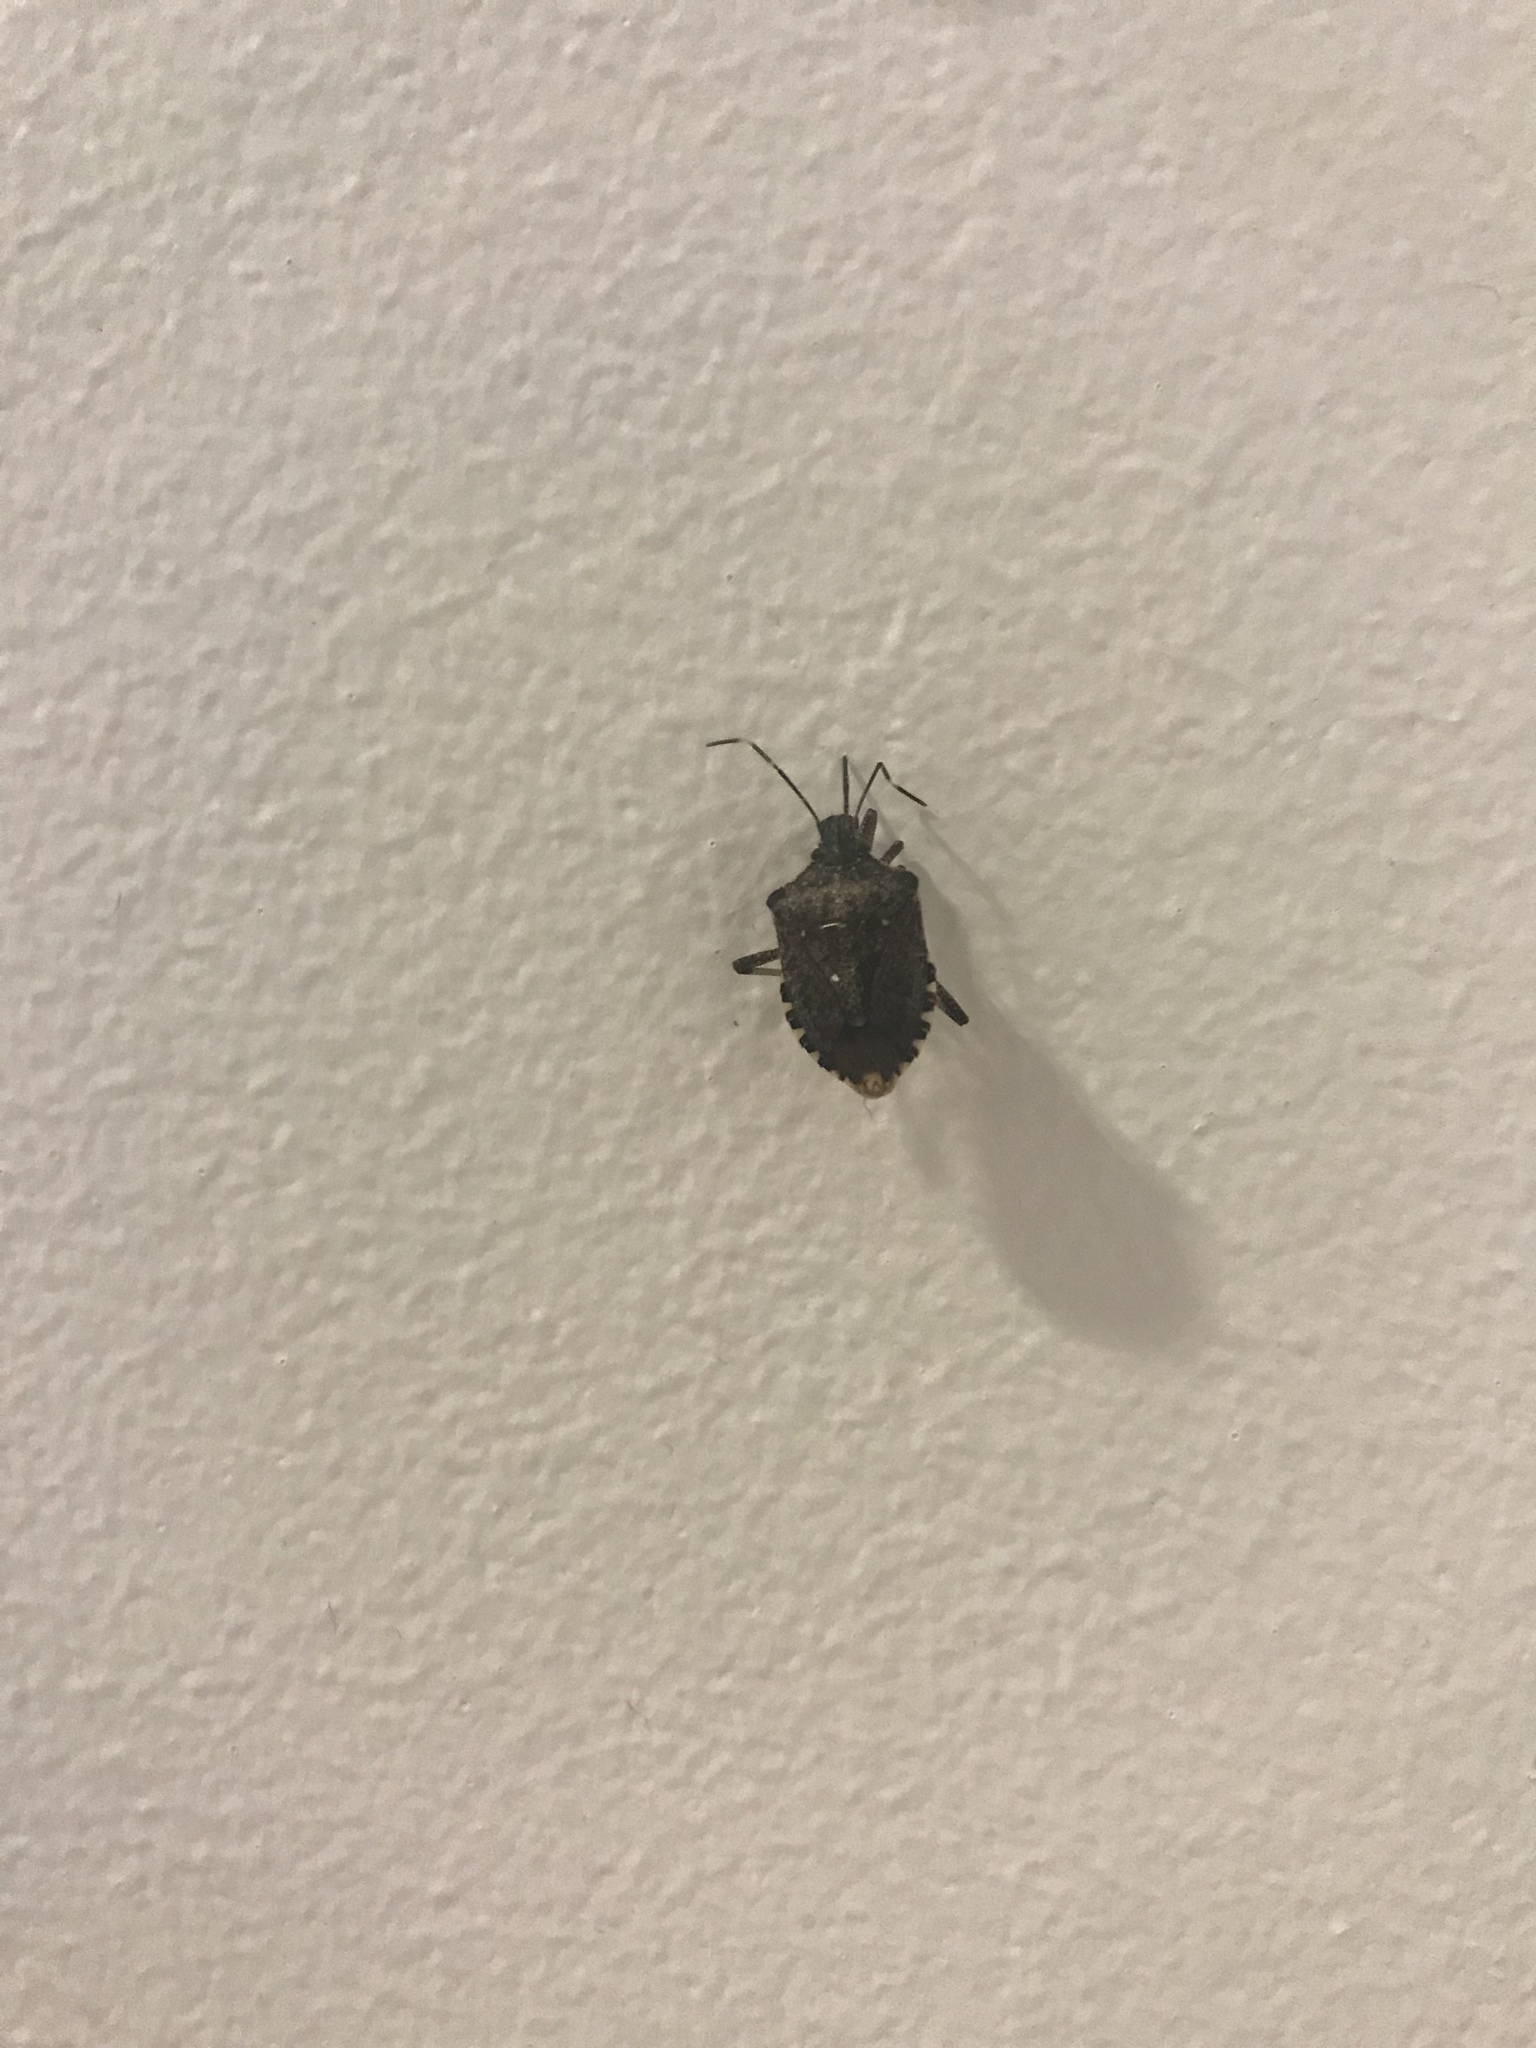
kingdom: Animalia
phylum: Arthropoda
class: Insecta
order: Hemiptera
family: Pentatomidae
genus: Halyomorpha
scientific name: Halyomorpha halys
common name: Brown marmorated stink bug
